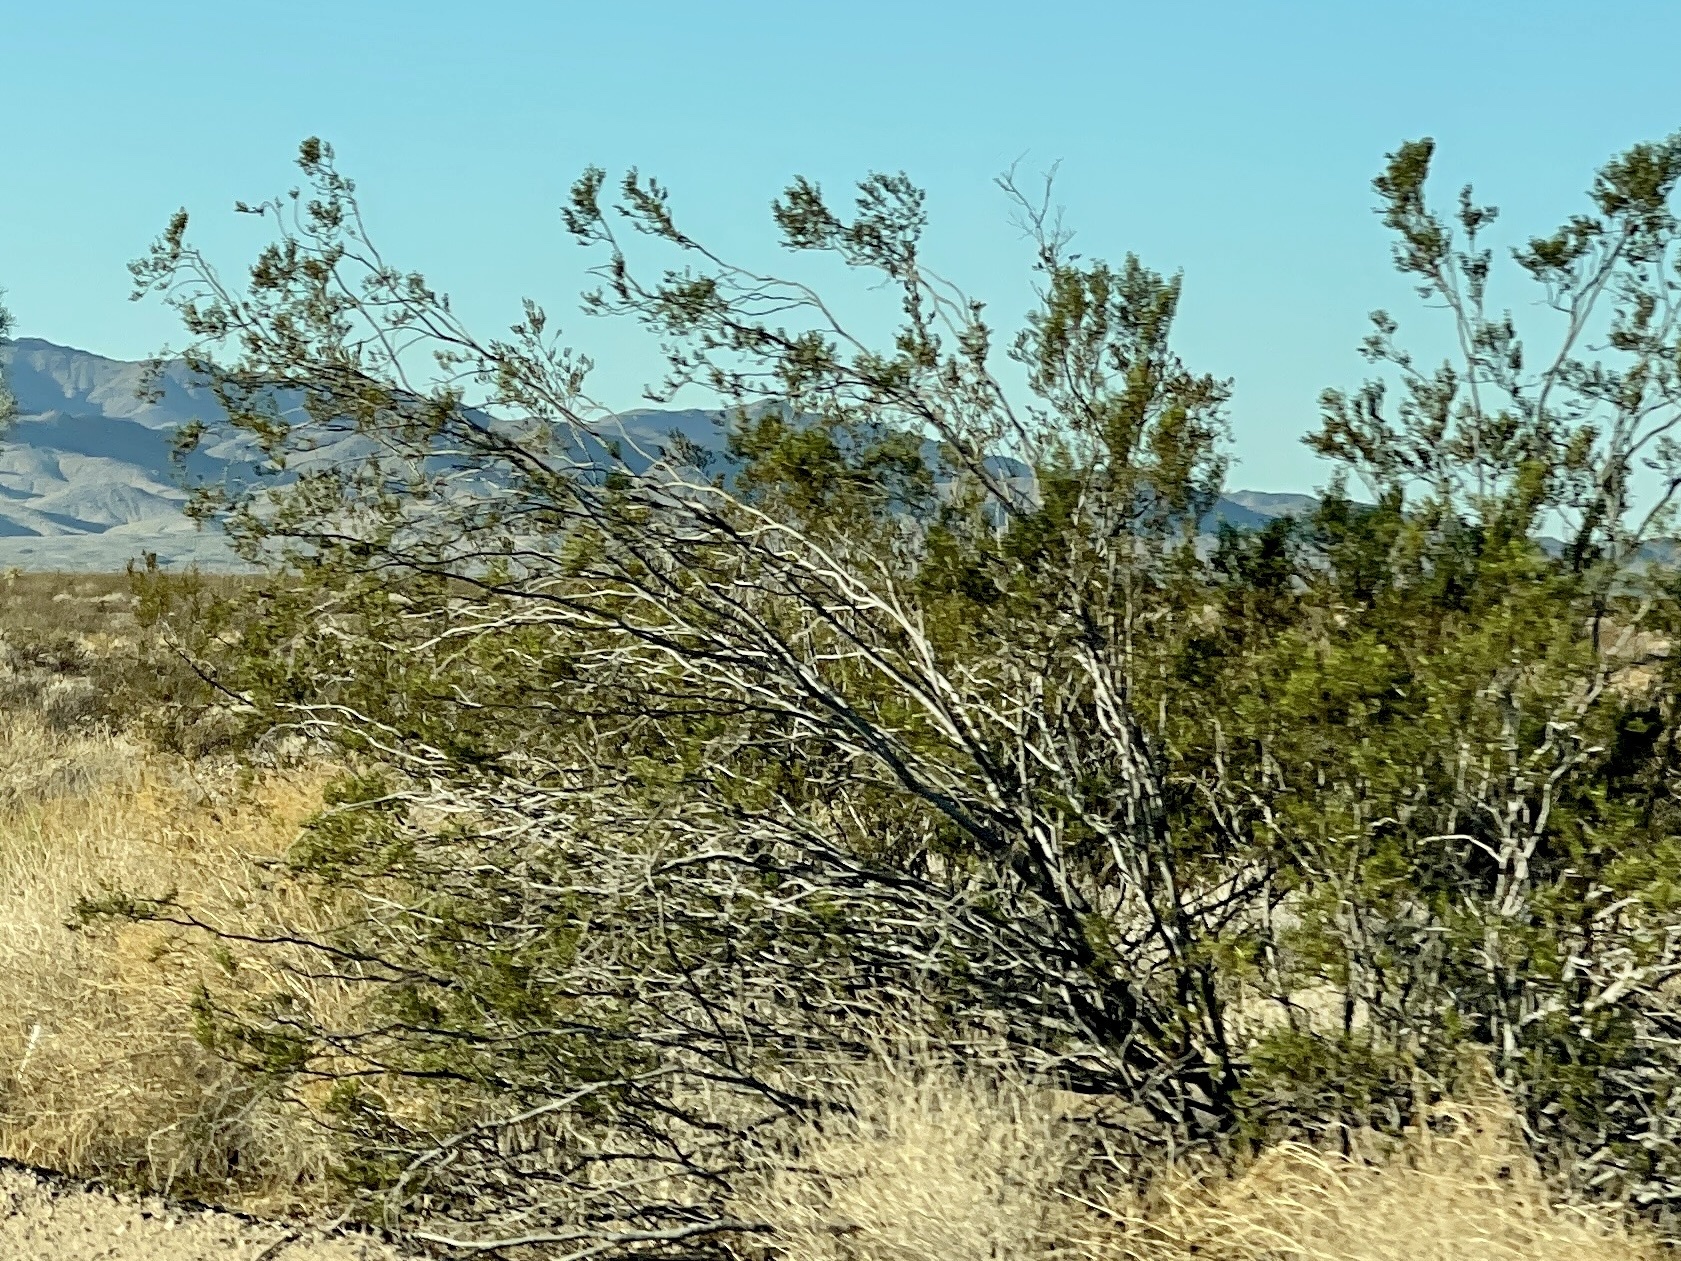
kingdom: Plantae
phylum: Tracheophyta
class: Magnoliopsida
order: Zygophyllales
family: Zygophyllaceae
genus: Larrea
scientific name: Larrea tridentata
